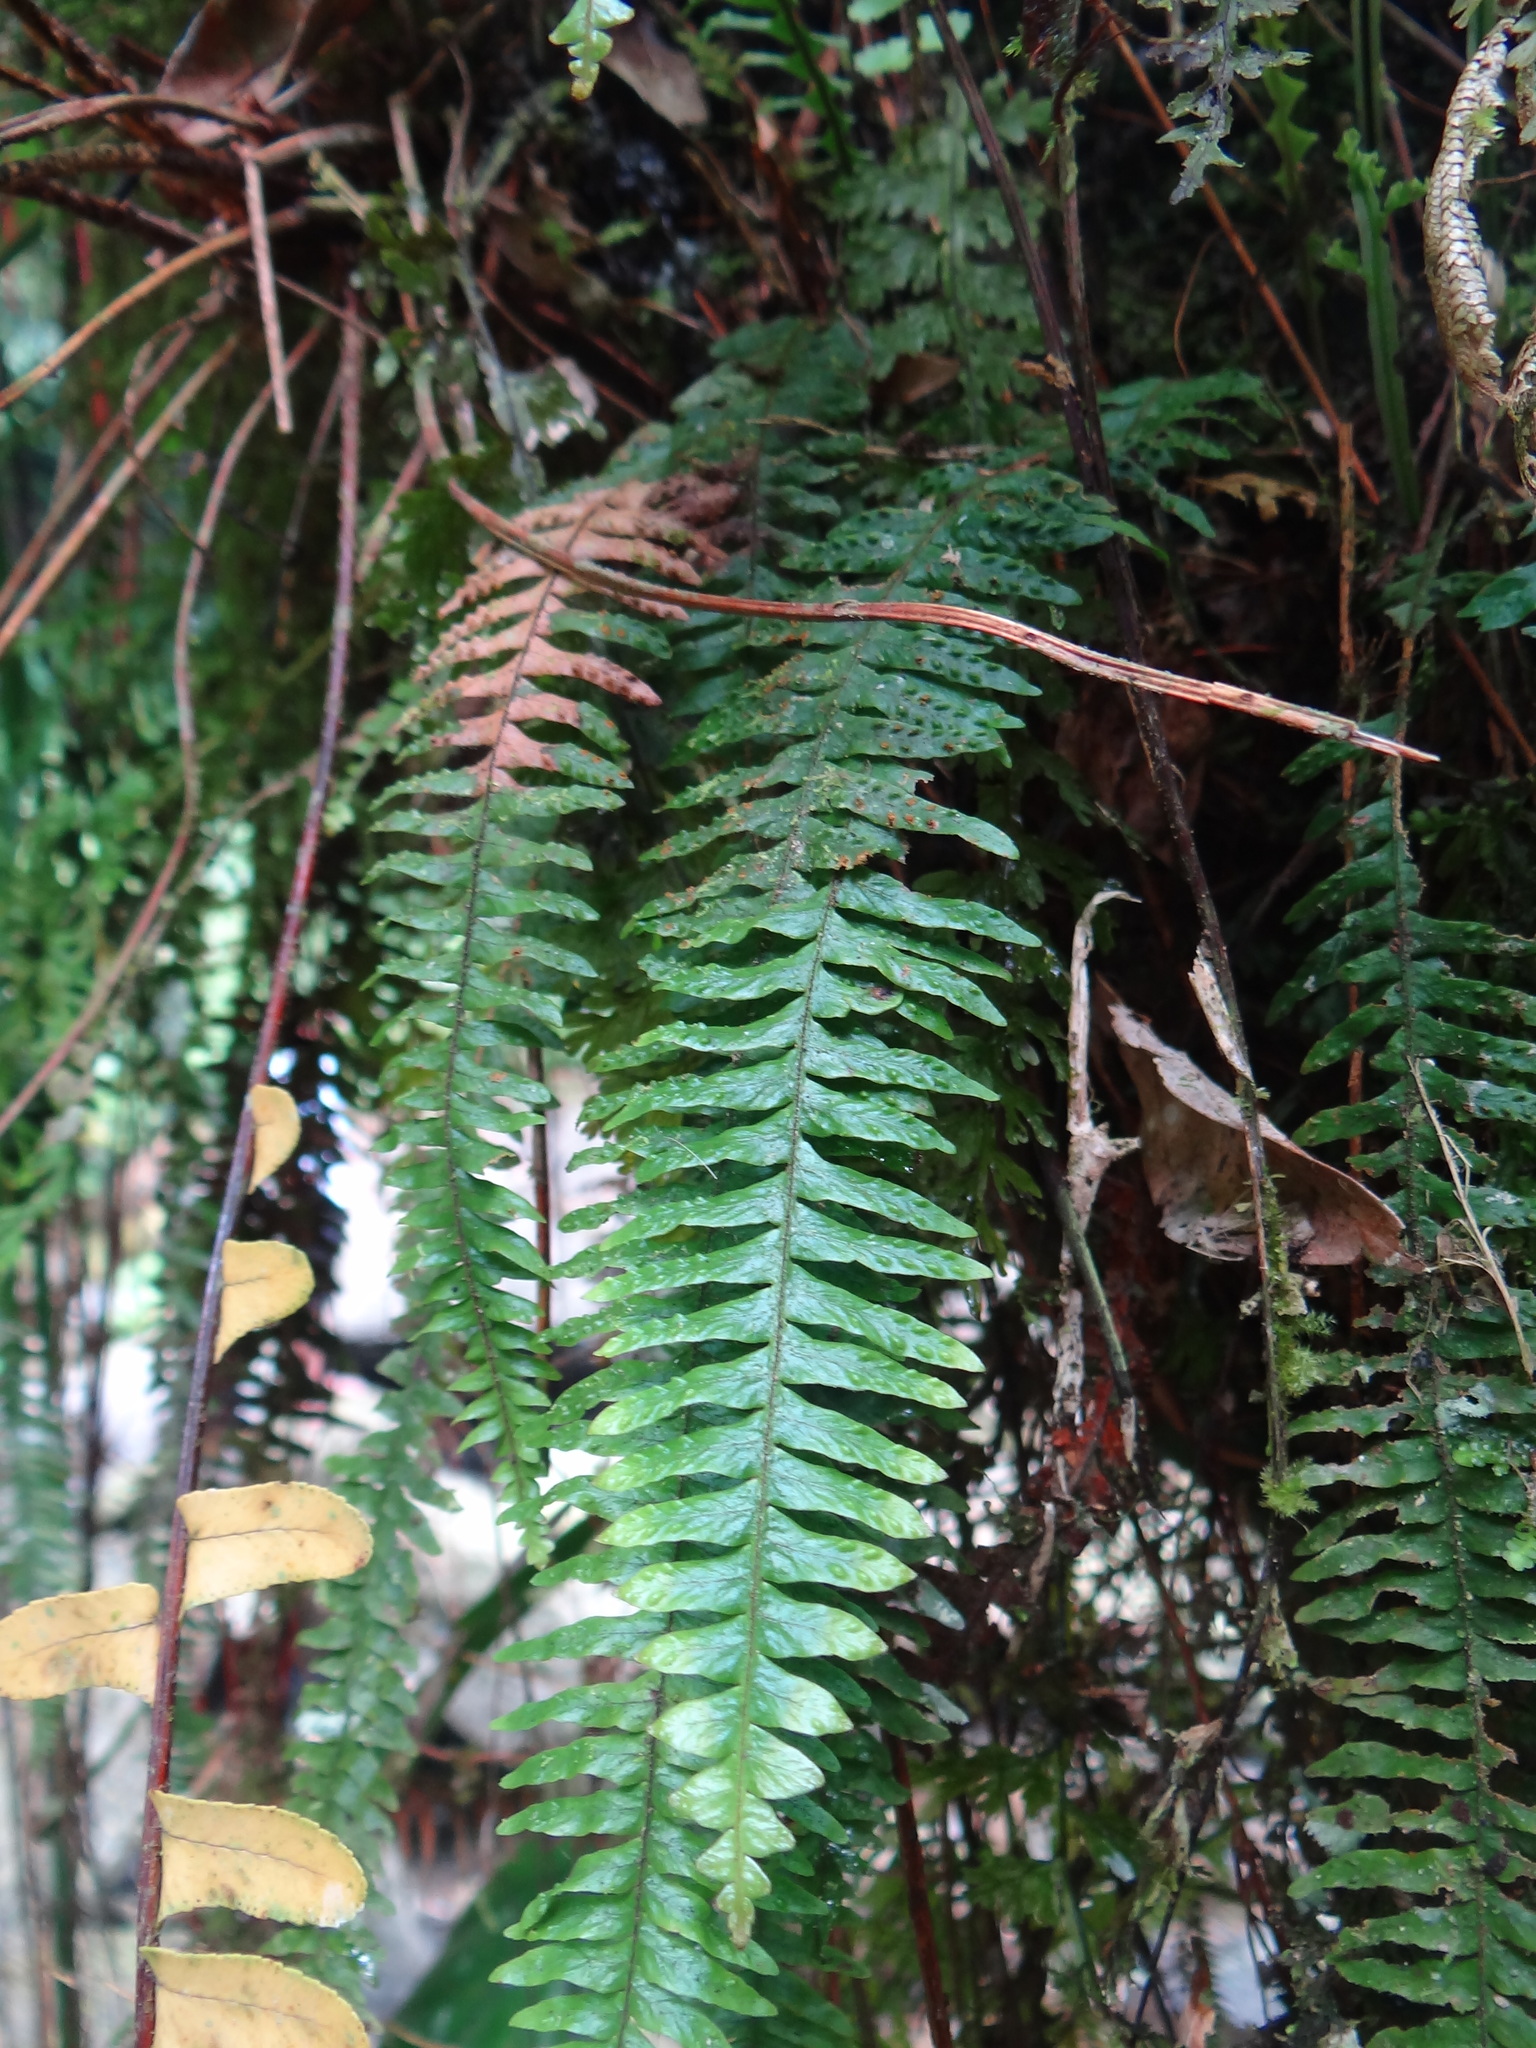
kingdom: Plantae
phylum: Tracheophyta
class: Polypodiopsida
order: Polypodiales
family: Polypodiaceae
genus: Prosaptia
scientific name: Prosaptia obliquata
